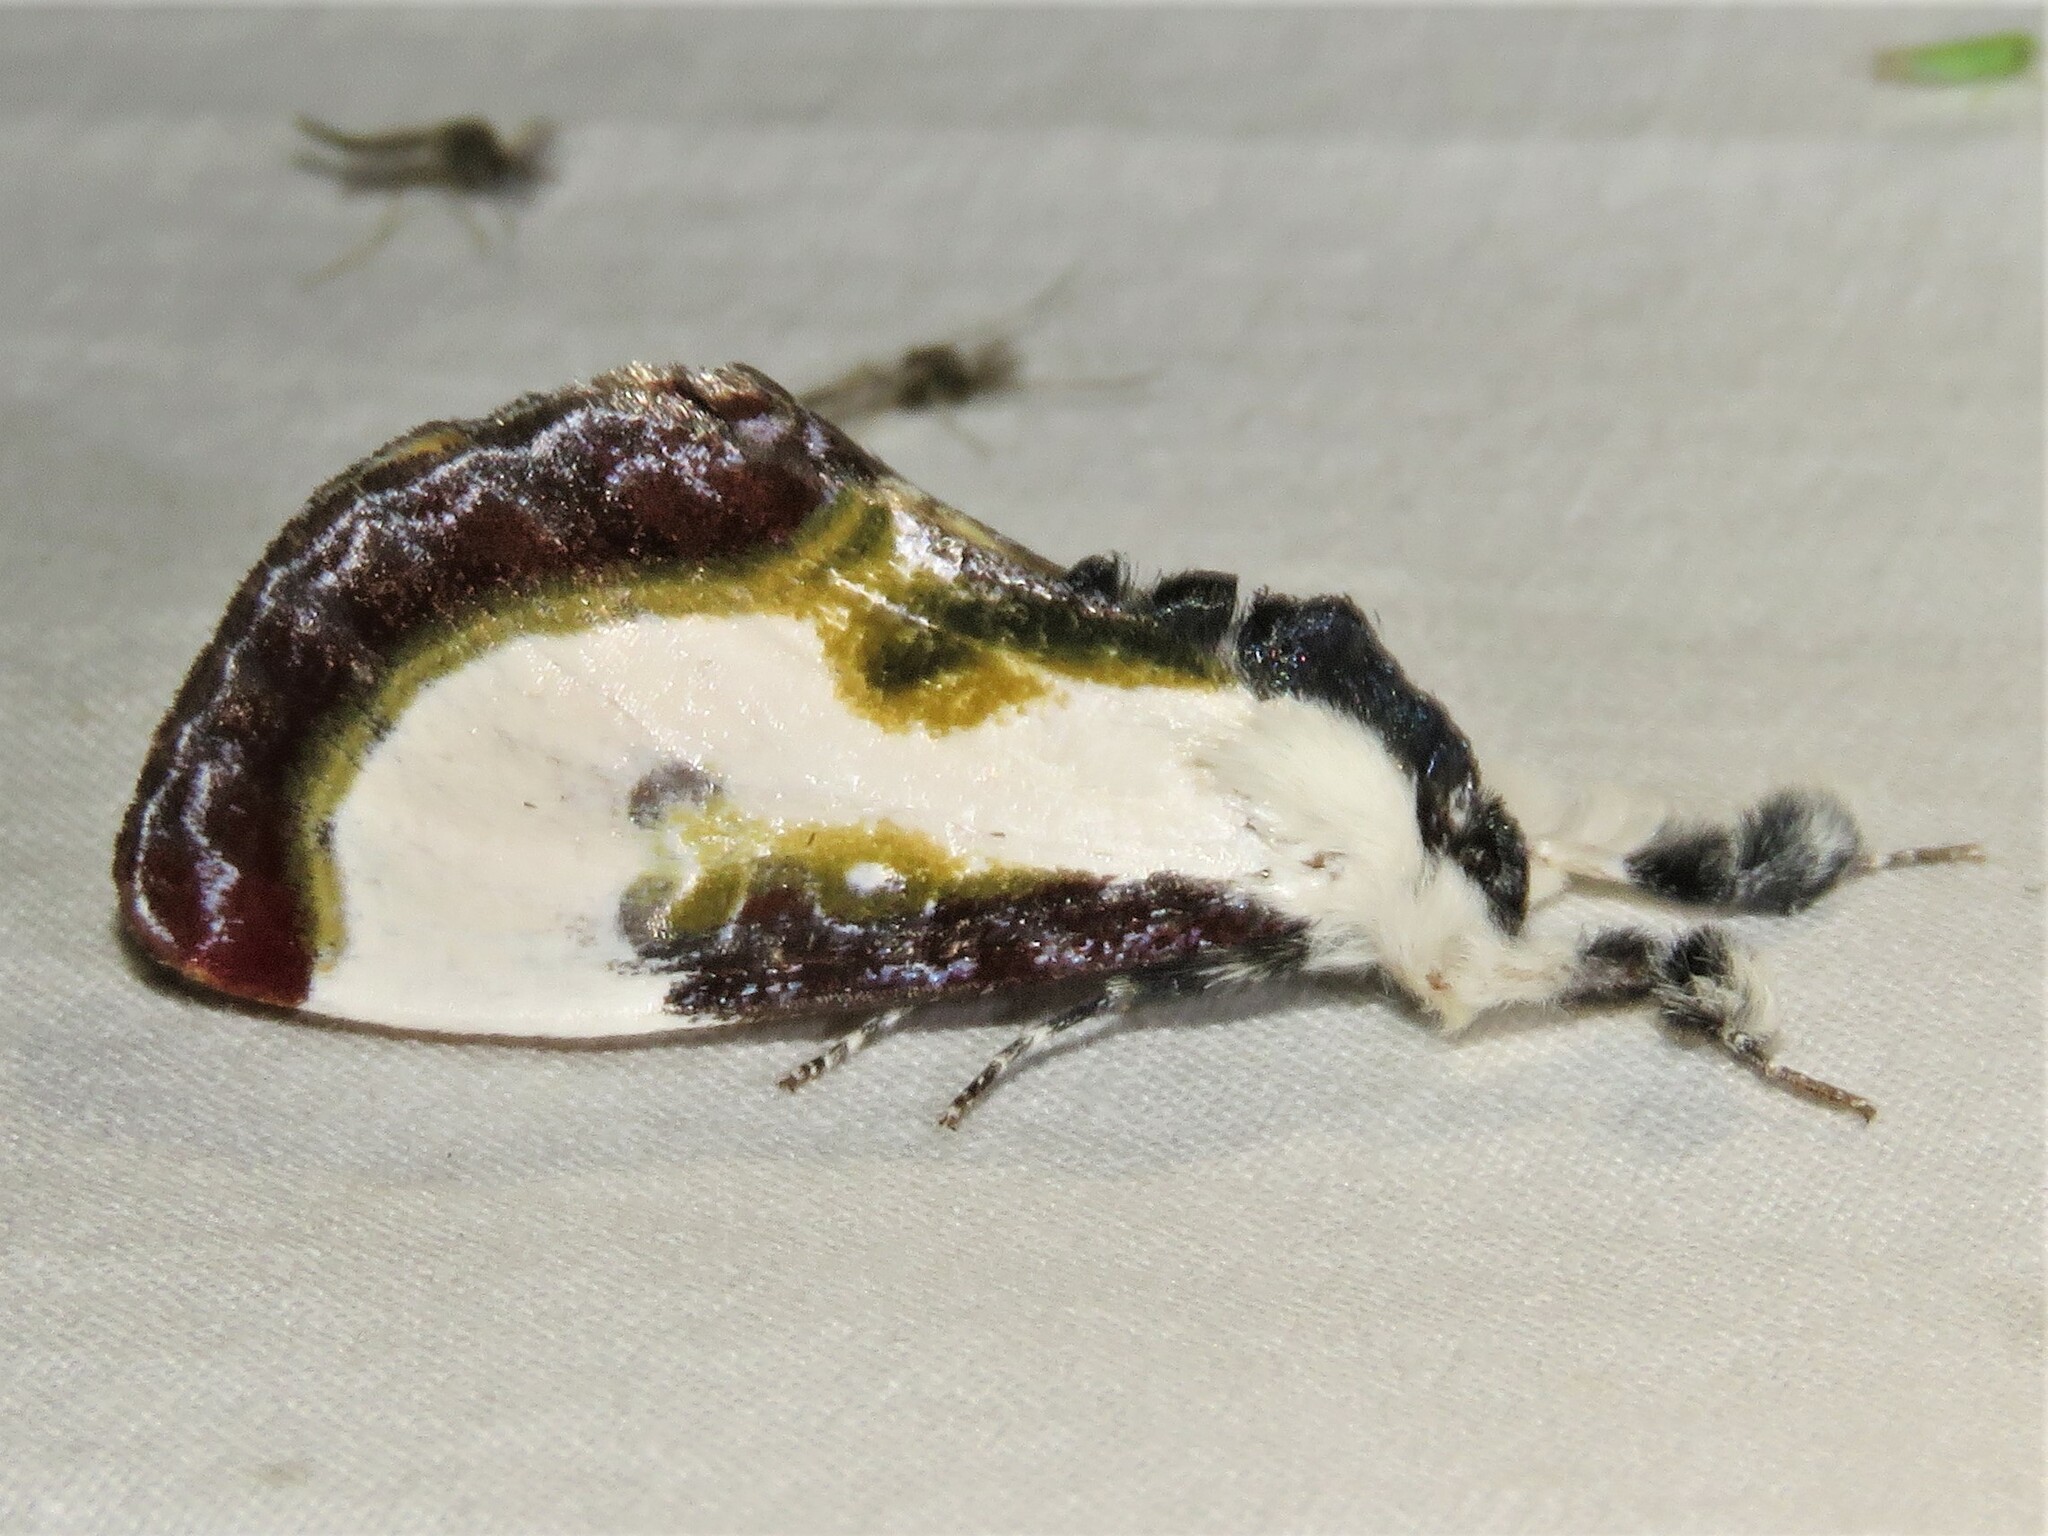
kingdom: Animalia
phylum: Arthropoda
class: Insecta
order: Lepidoptera
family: Noctuidae
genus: Eudryas
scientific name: Eudryas grata
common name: Beautiful wood-nymph
